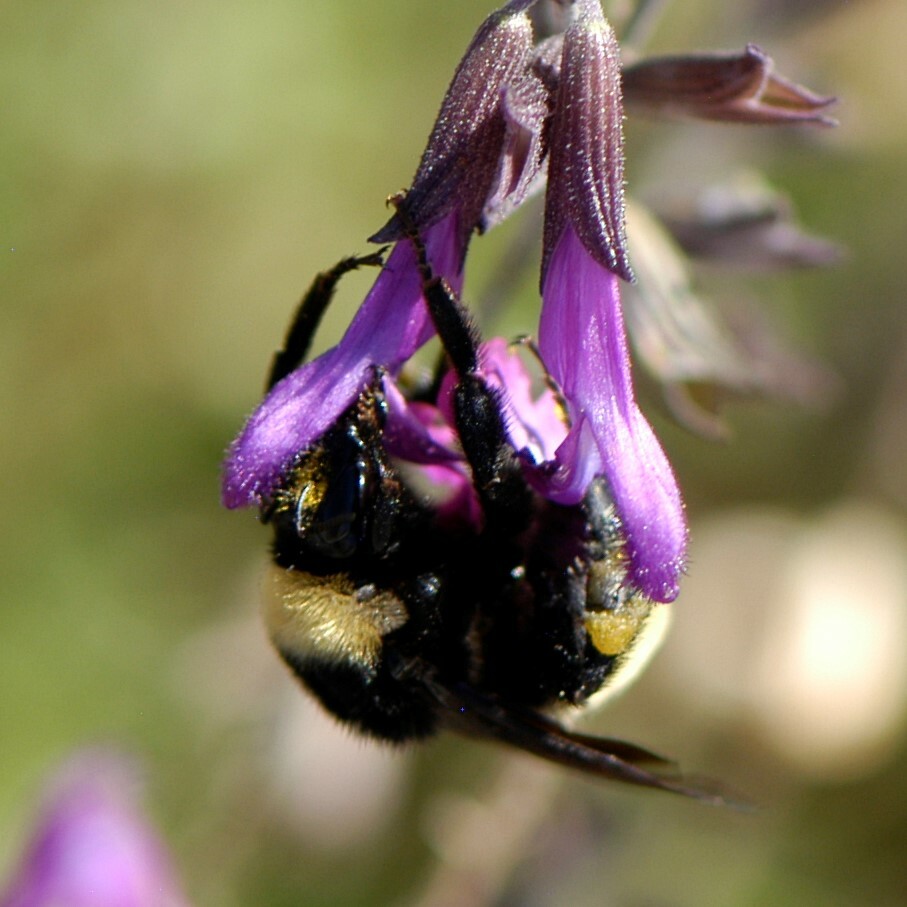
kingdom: Animalia
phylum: Arthropoda
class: Insecta
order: Hymenoptera
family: Apidae
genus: Bombus
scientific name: Bombus pensylvanicus
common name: Bumble bee
